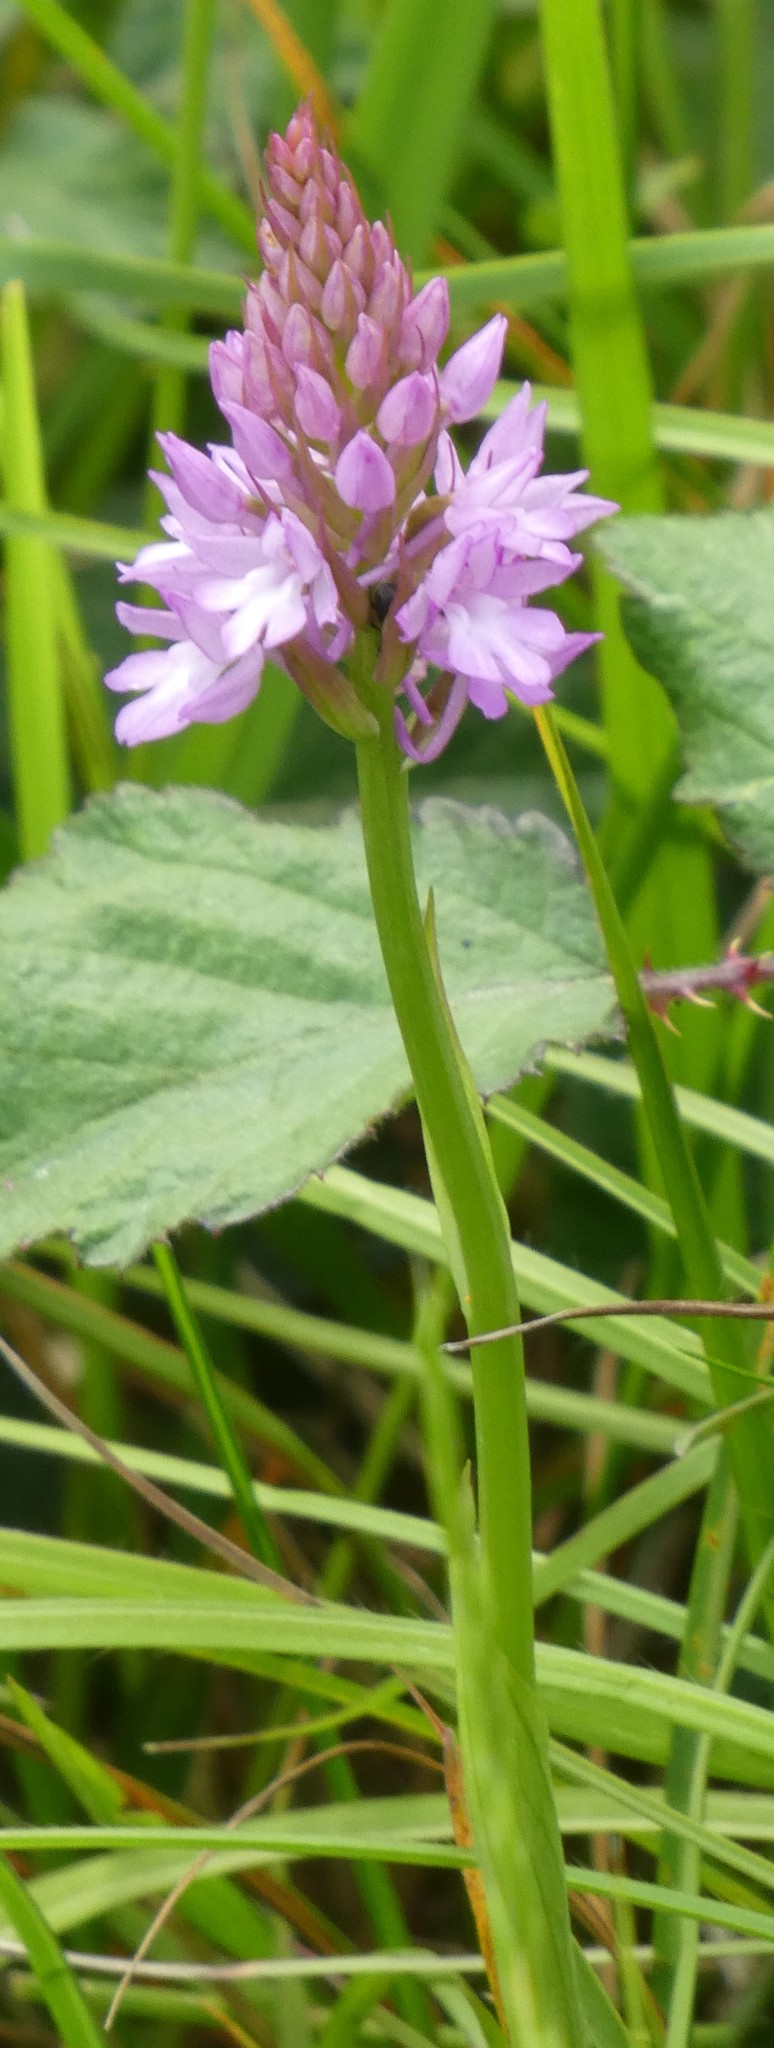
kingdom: Plantae
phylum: Tracheophyta
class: Liliopsida
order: Asparagales
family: Orchidaceae
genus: Anacamptis
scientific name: Anacamptis pyramidalis
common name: Pyramidal orchid
